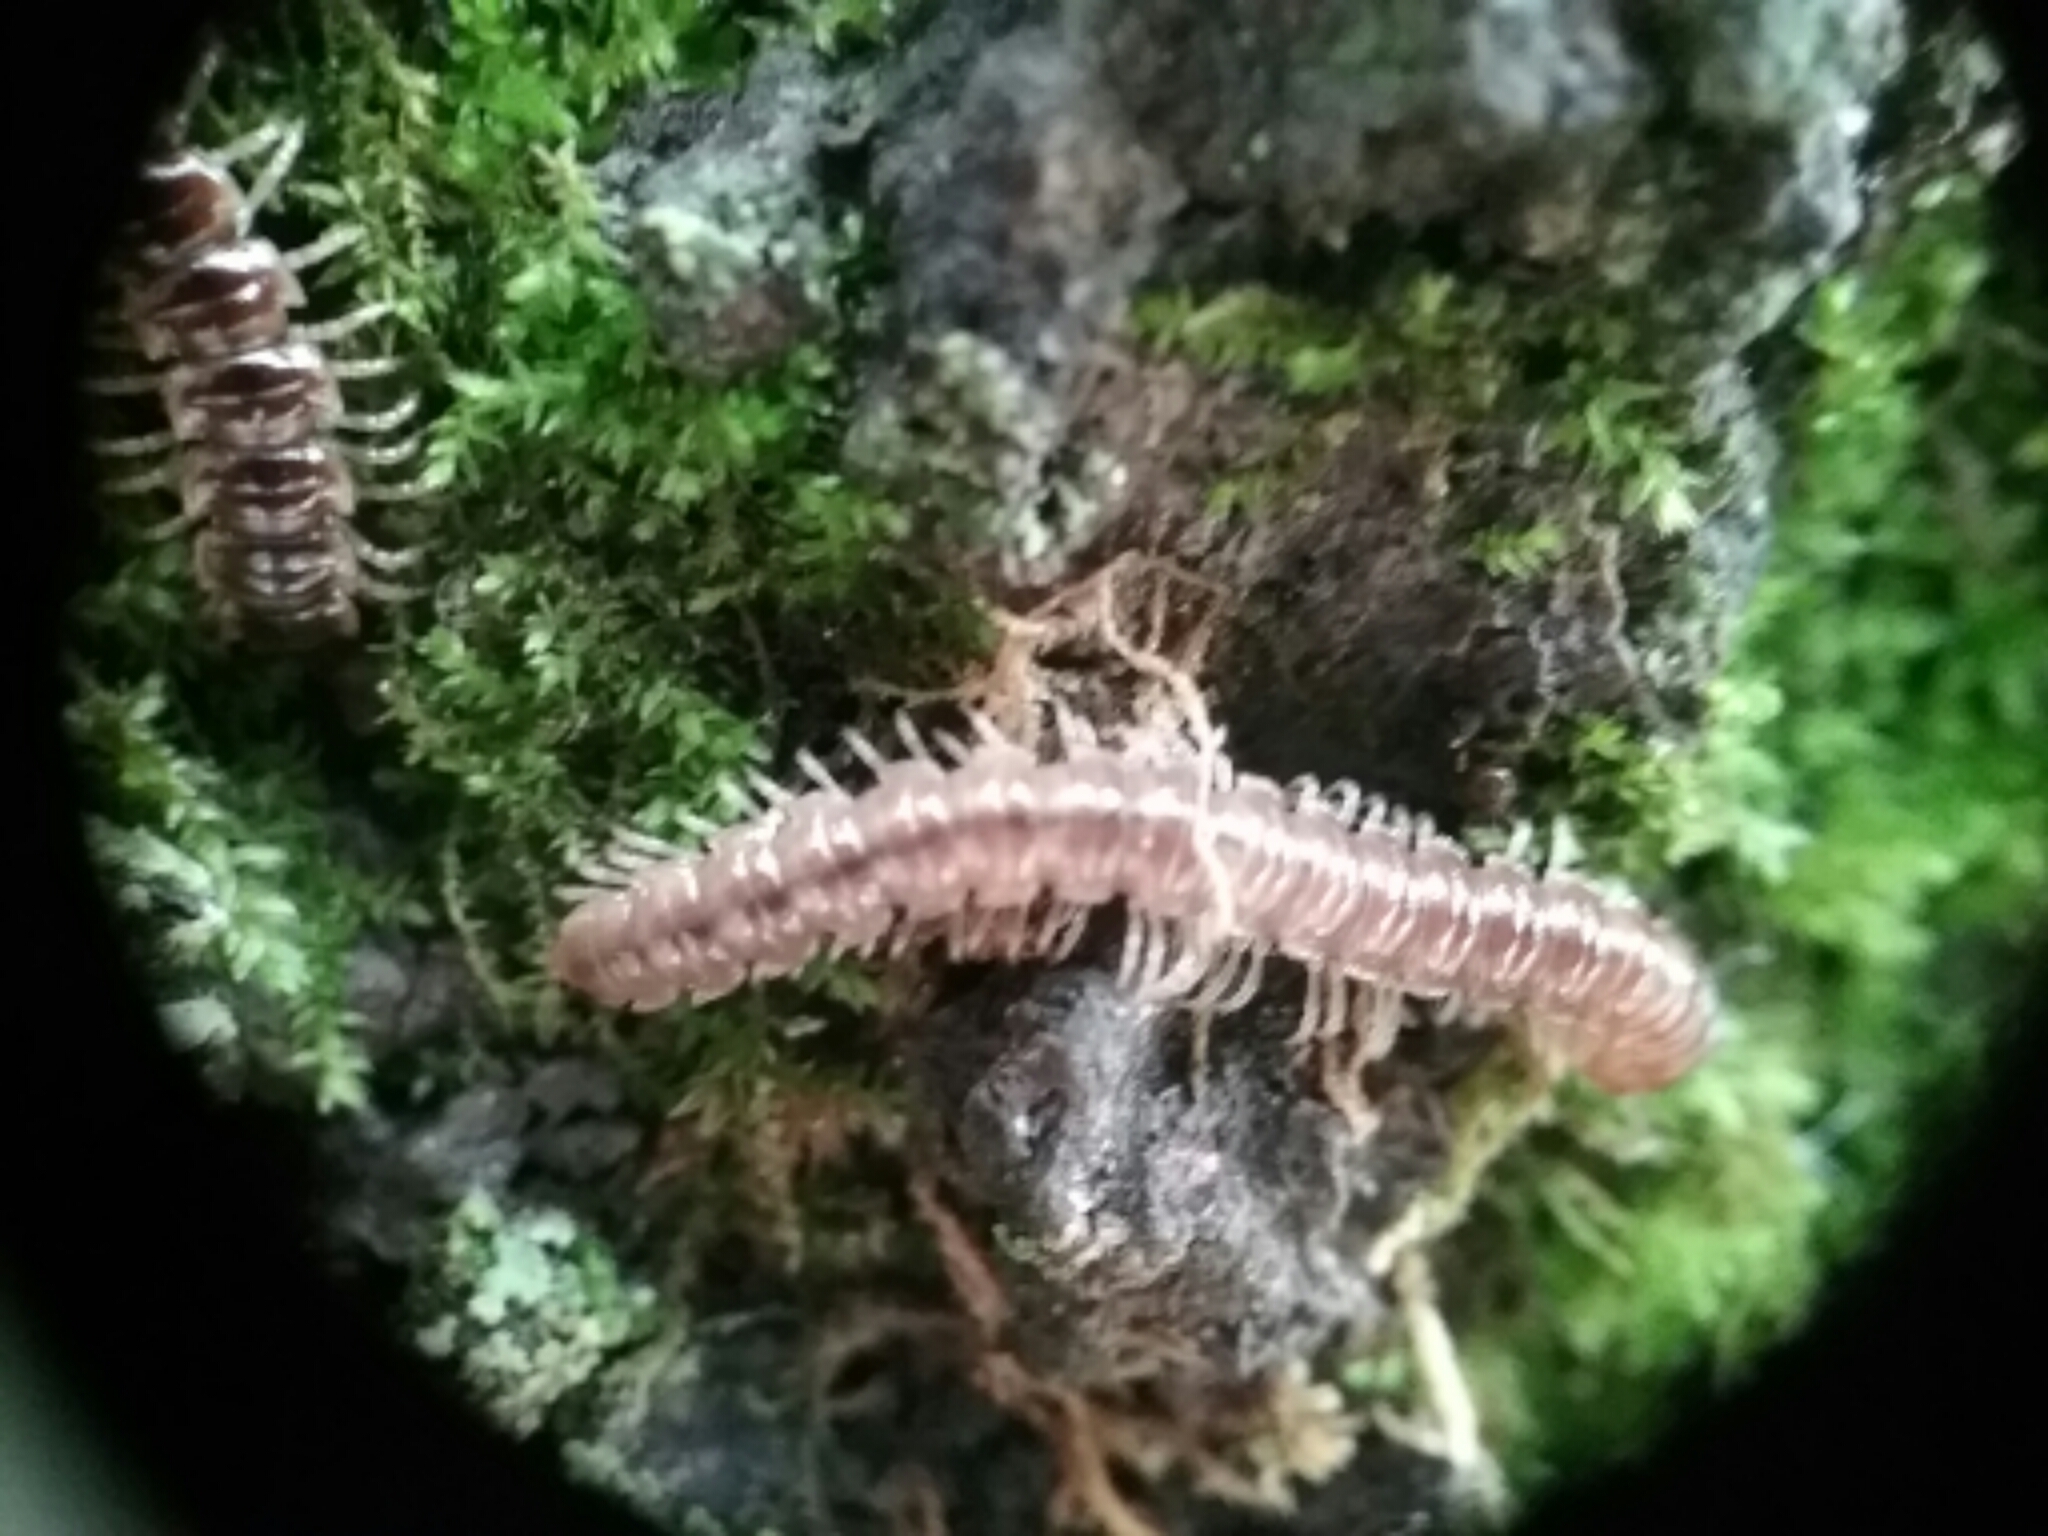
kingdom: Animalia
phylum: Arthropoda
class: Diplopoda
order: Polydesmida
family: Paradoxosomatidae
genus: Oxidus
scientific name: Oxidus gracilis
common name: Greenhouse millipede
